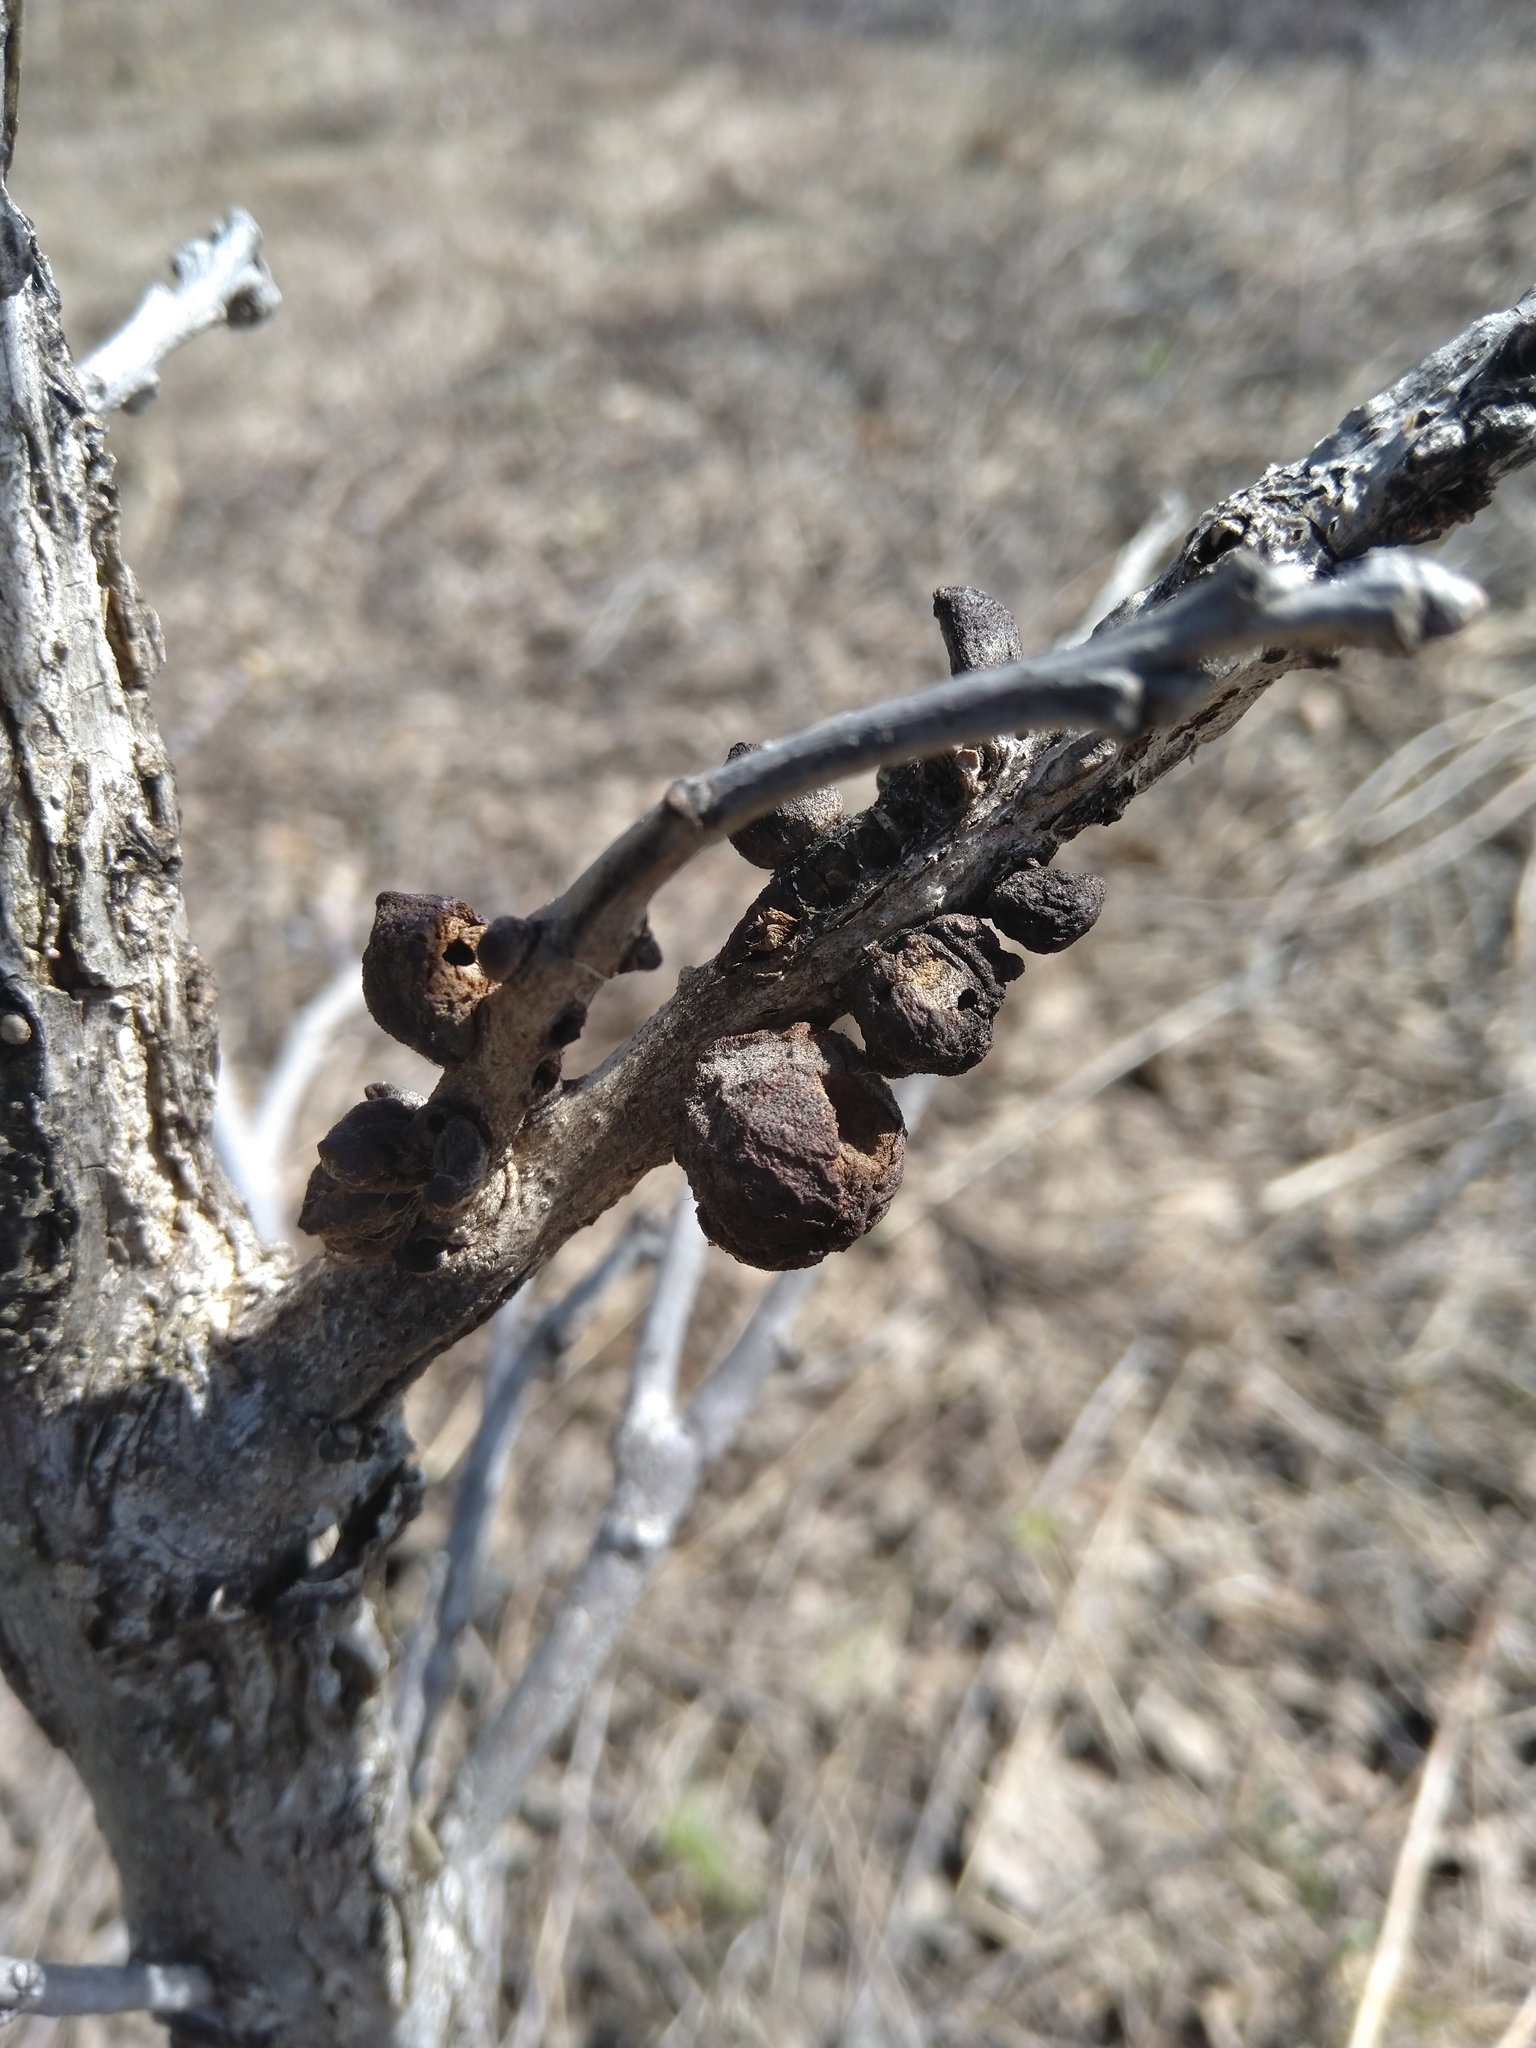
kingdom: Animalia
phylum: Arthropoda
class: Insecta
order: Hymenoptera
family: Cynipidae
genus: Disholcaspis
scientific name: Disholcaspis
